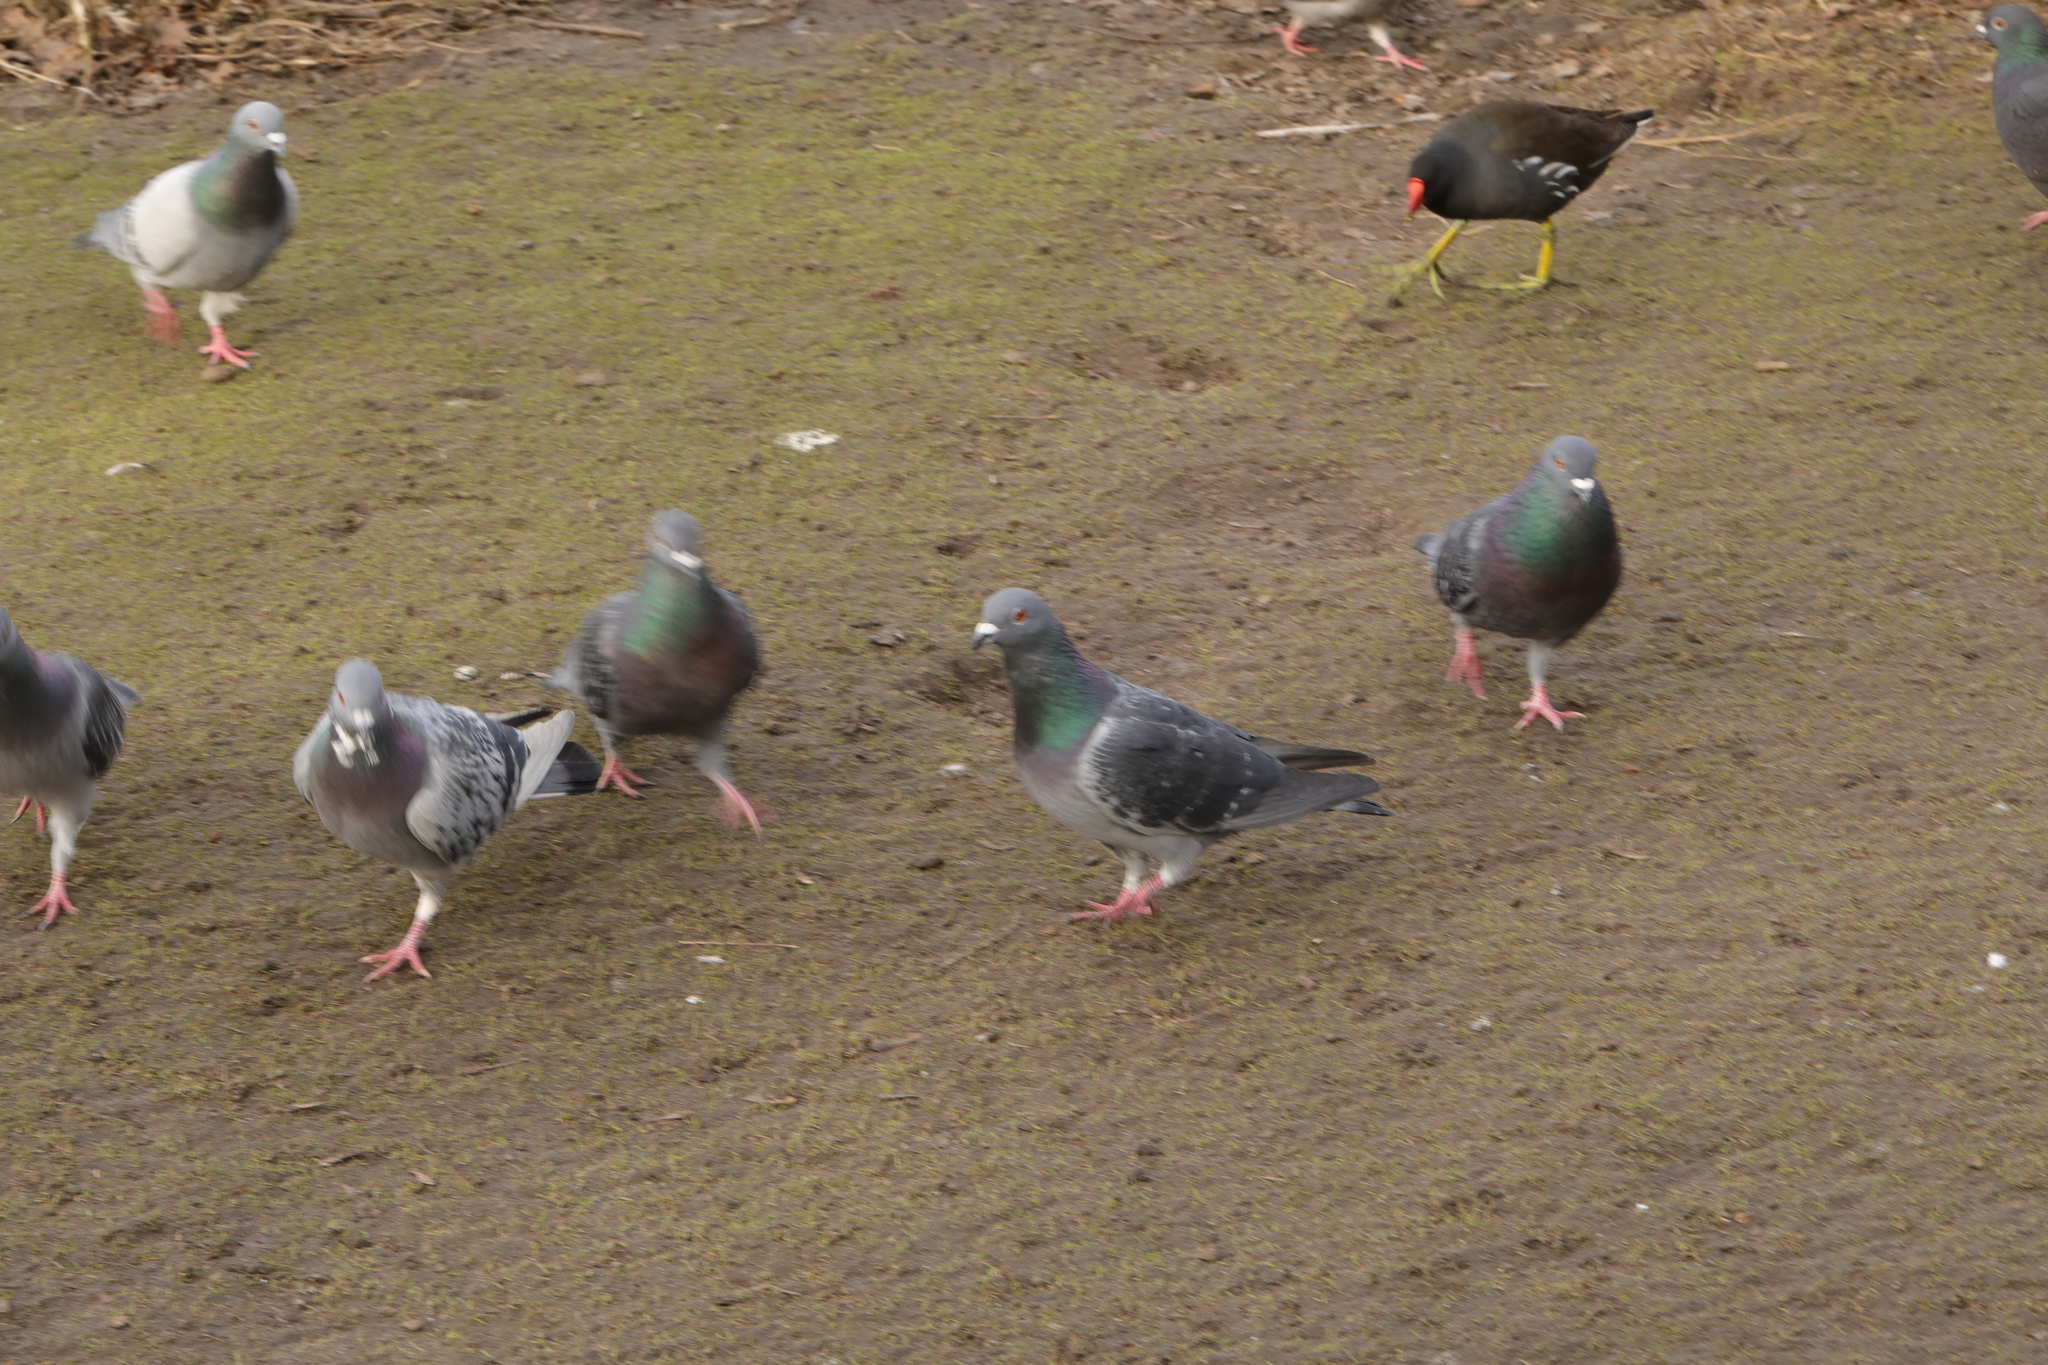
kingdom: Animalia
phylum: Chordata
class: Aves
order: Columbiformes
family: Columbidae
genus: Columba
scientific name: Columba livia
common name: Rock pigeon
